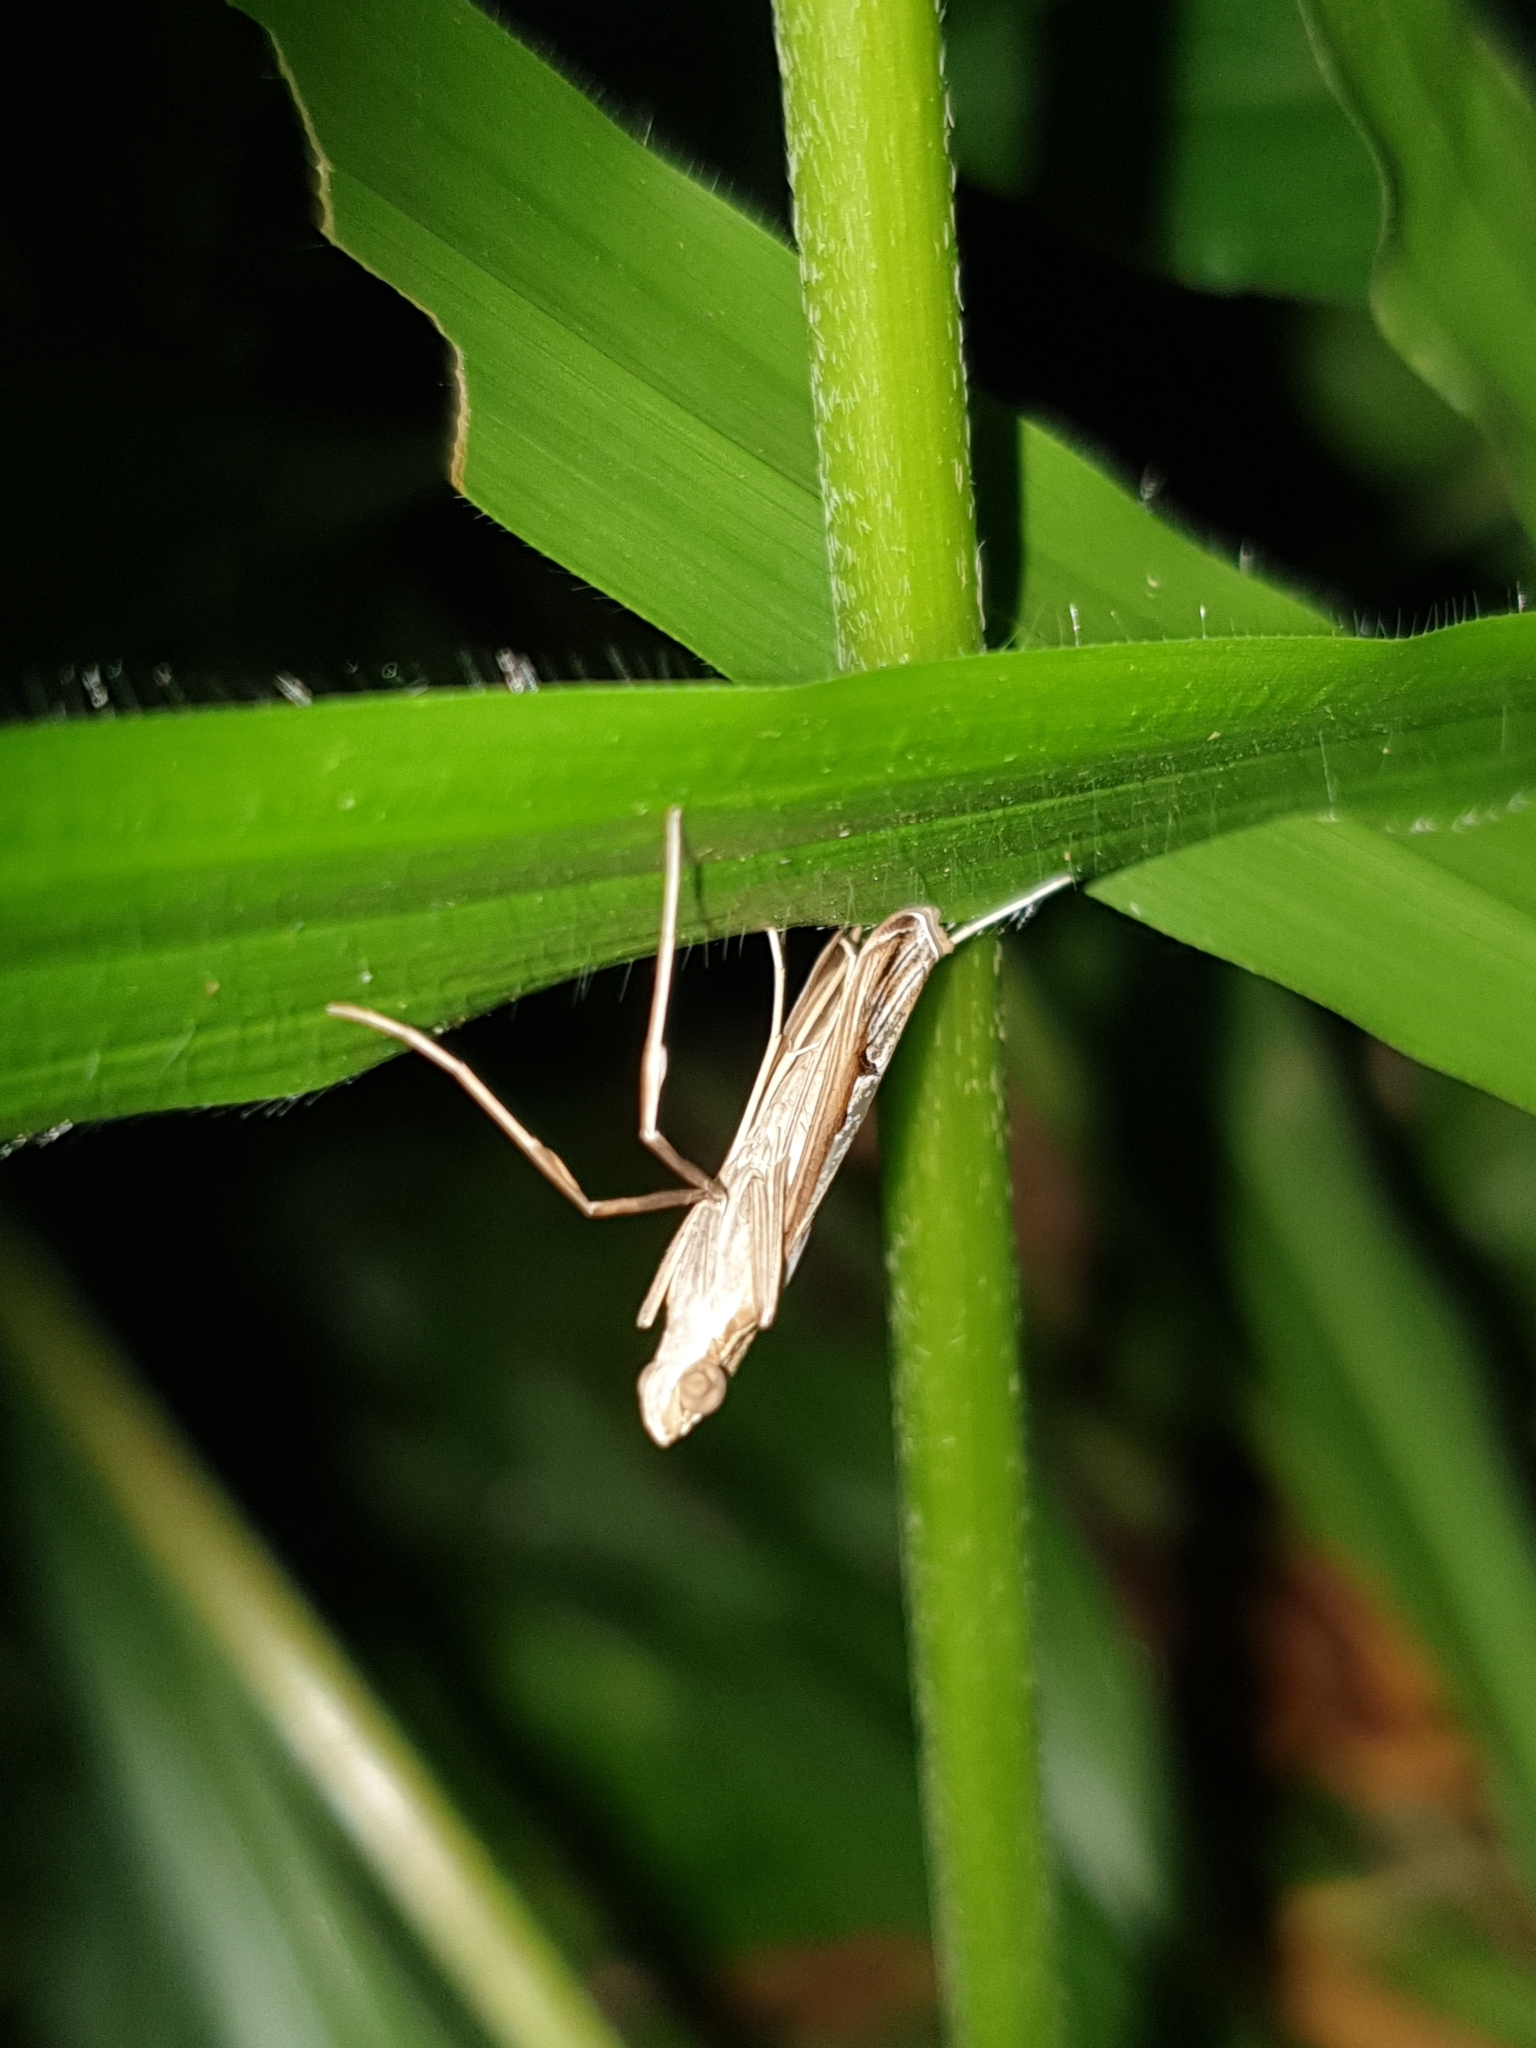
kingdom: Animalia
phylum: Arthropoda
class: Insecta
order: Lepidoptera
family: Crambidae
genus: Euclasta
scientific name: Euclasta
